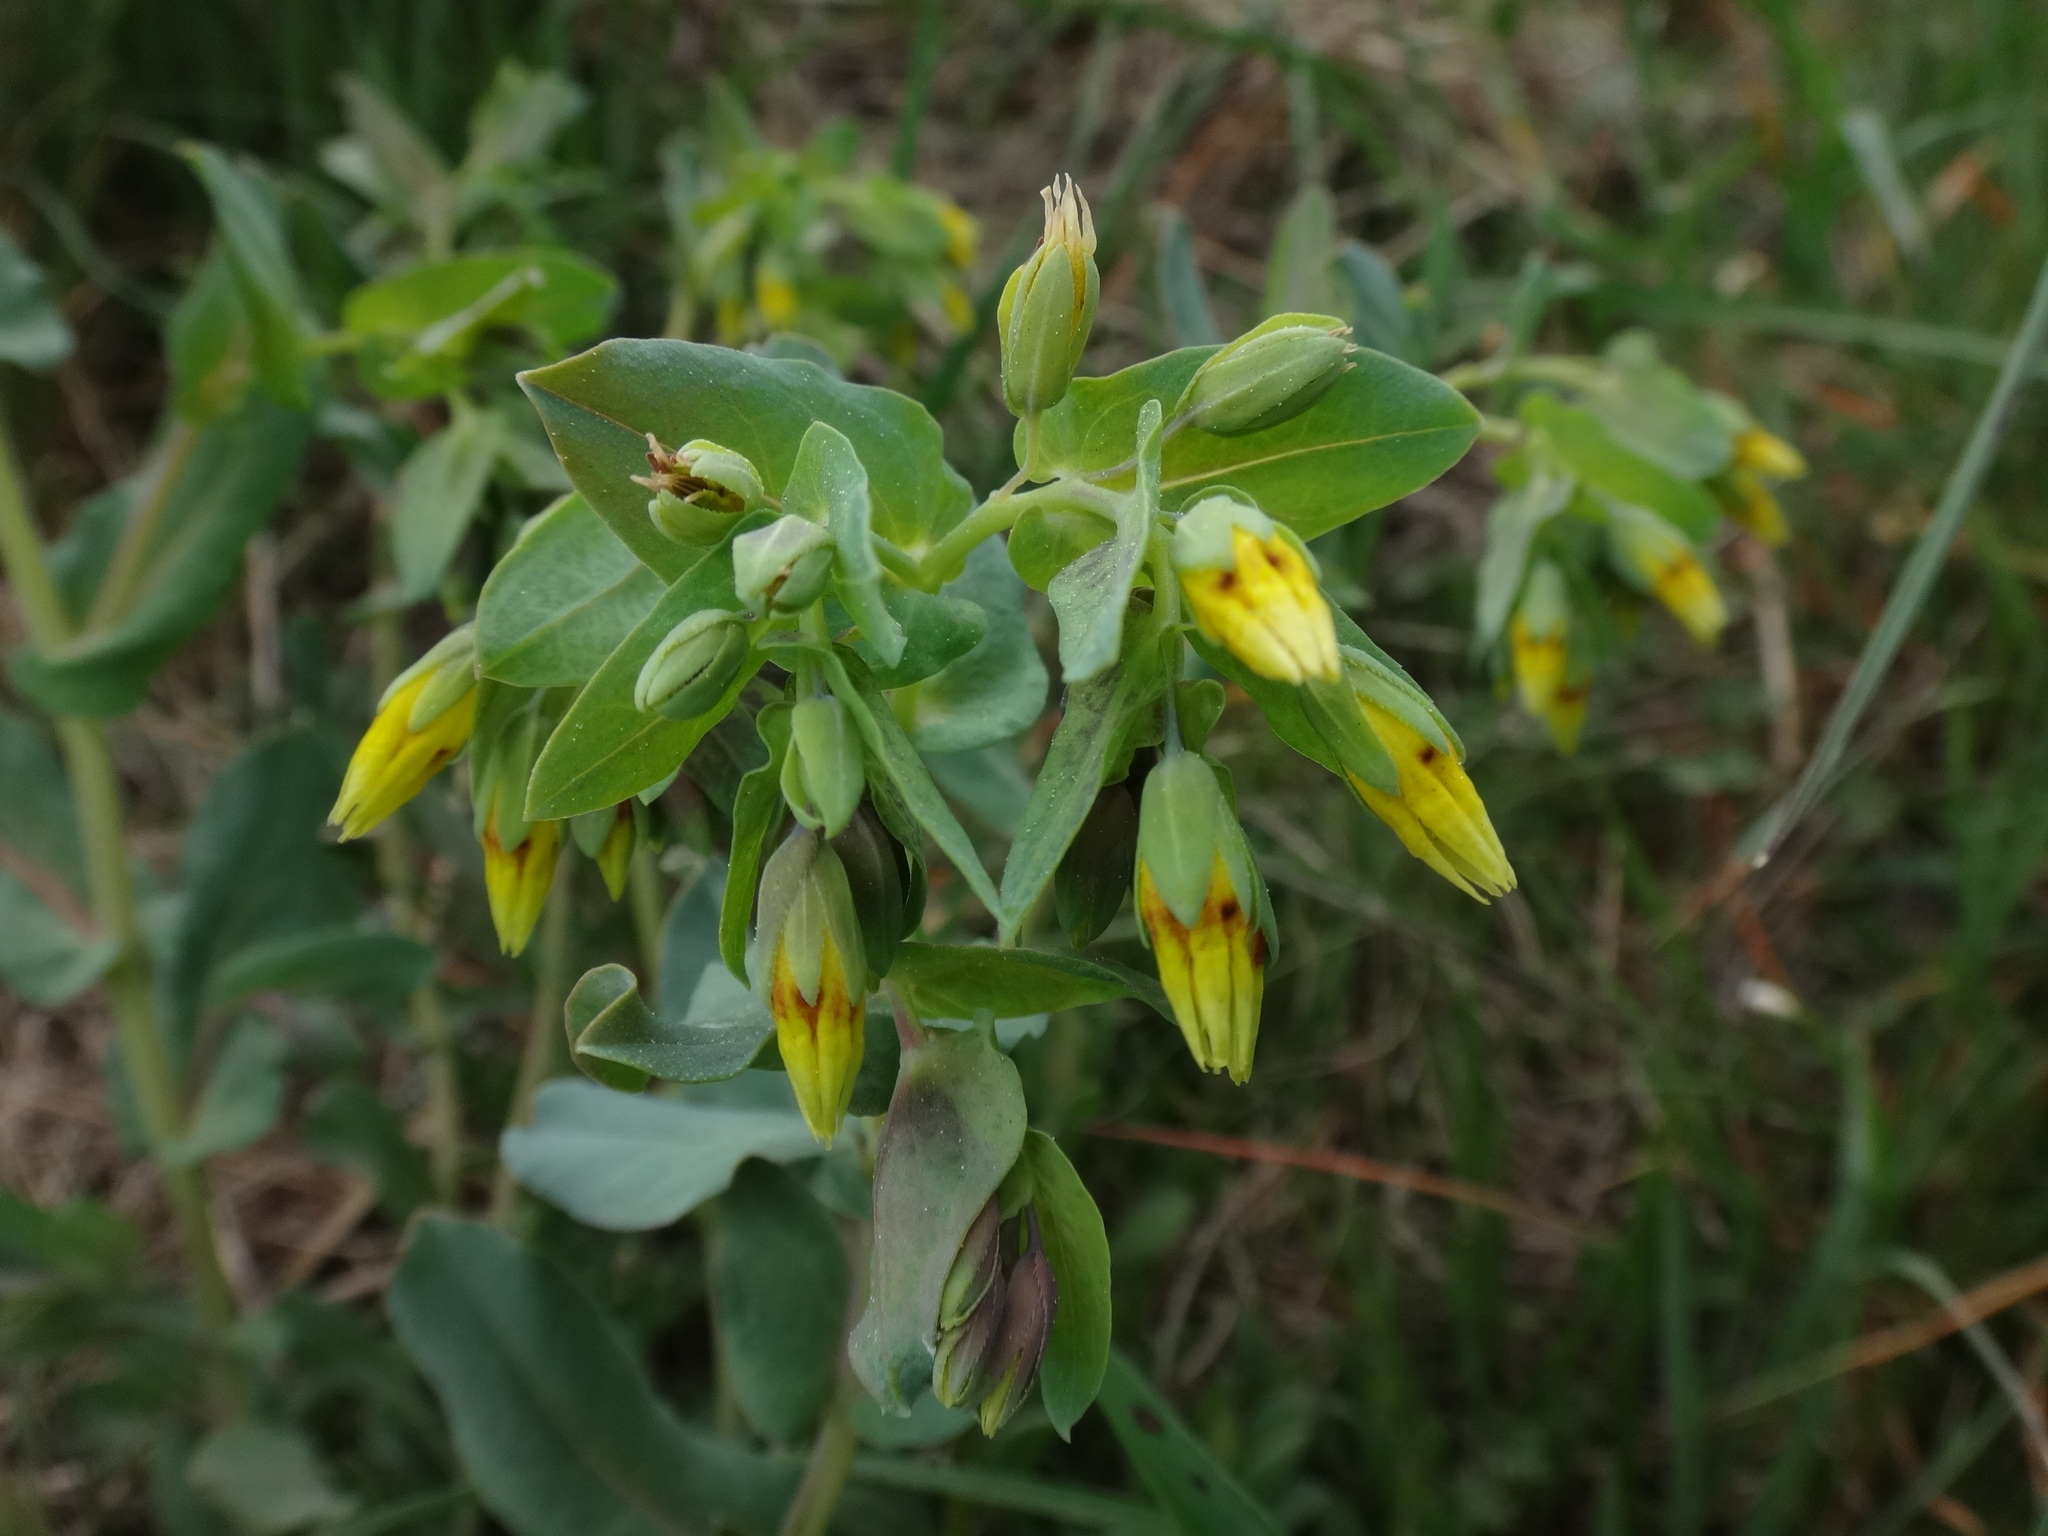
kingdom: Plantae
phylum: Tracheophyta
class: Magnoliopsida
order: Boraginales
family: Boraginaceae
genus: Cerinthe
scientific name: Cerinthe minor
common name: Lesser honeywort
